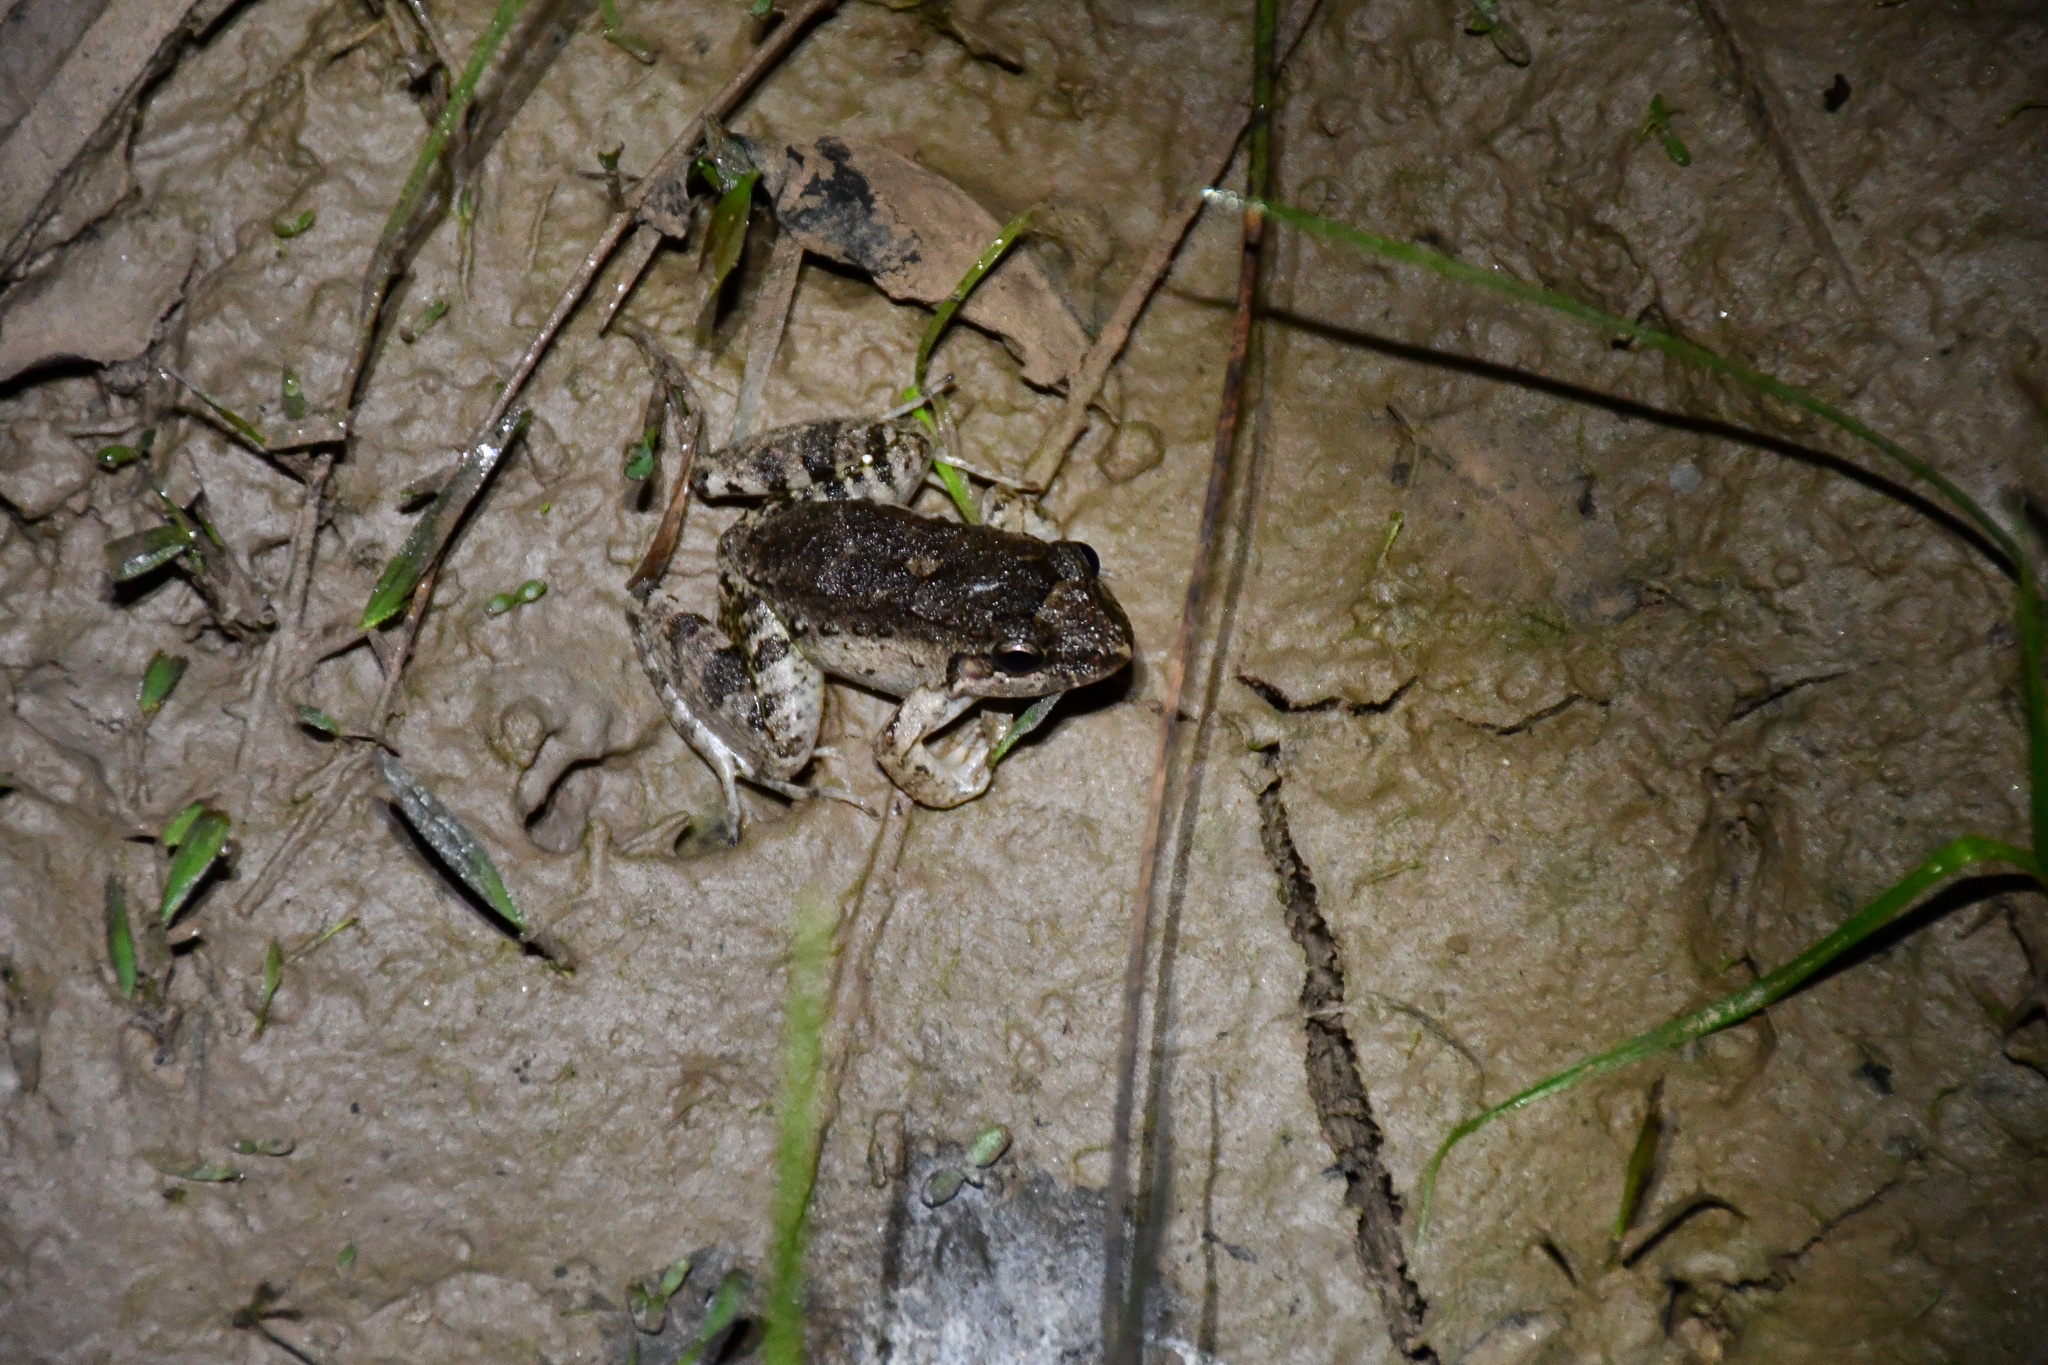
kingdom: Animalia
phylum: Chordata
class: Amphibia
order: Anura
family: Leptodactylidae
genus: Leptodactylus
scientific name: Leptodactylus petersii
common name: Peters' thin-toed frog
